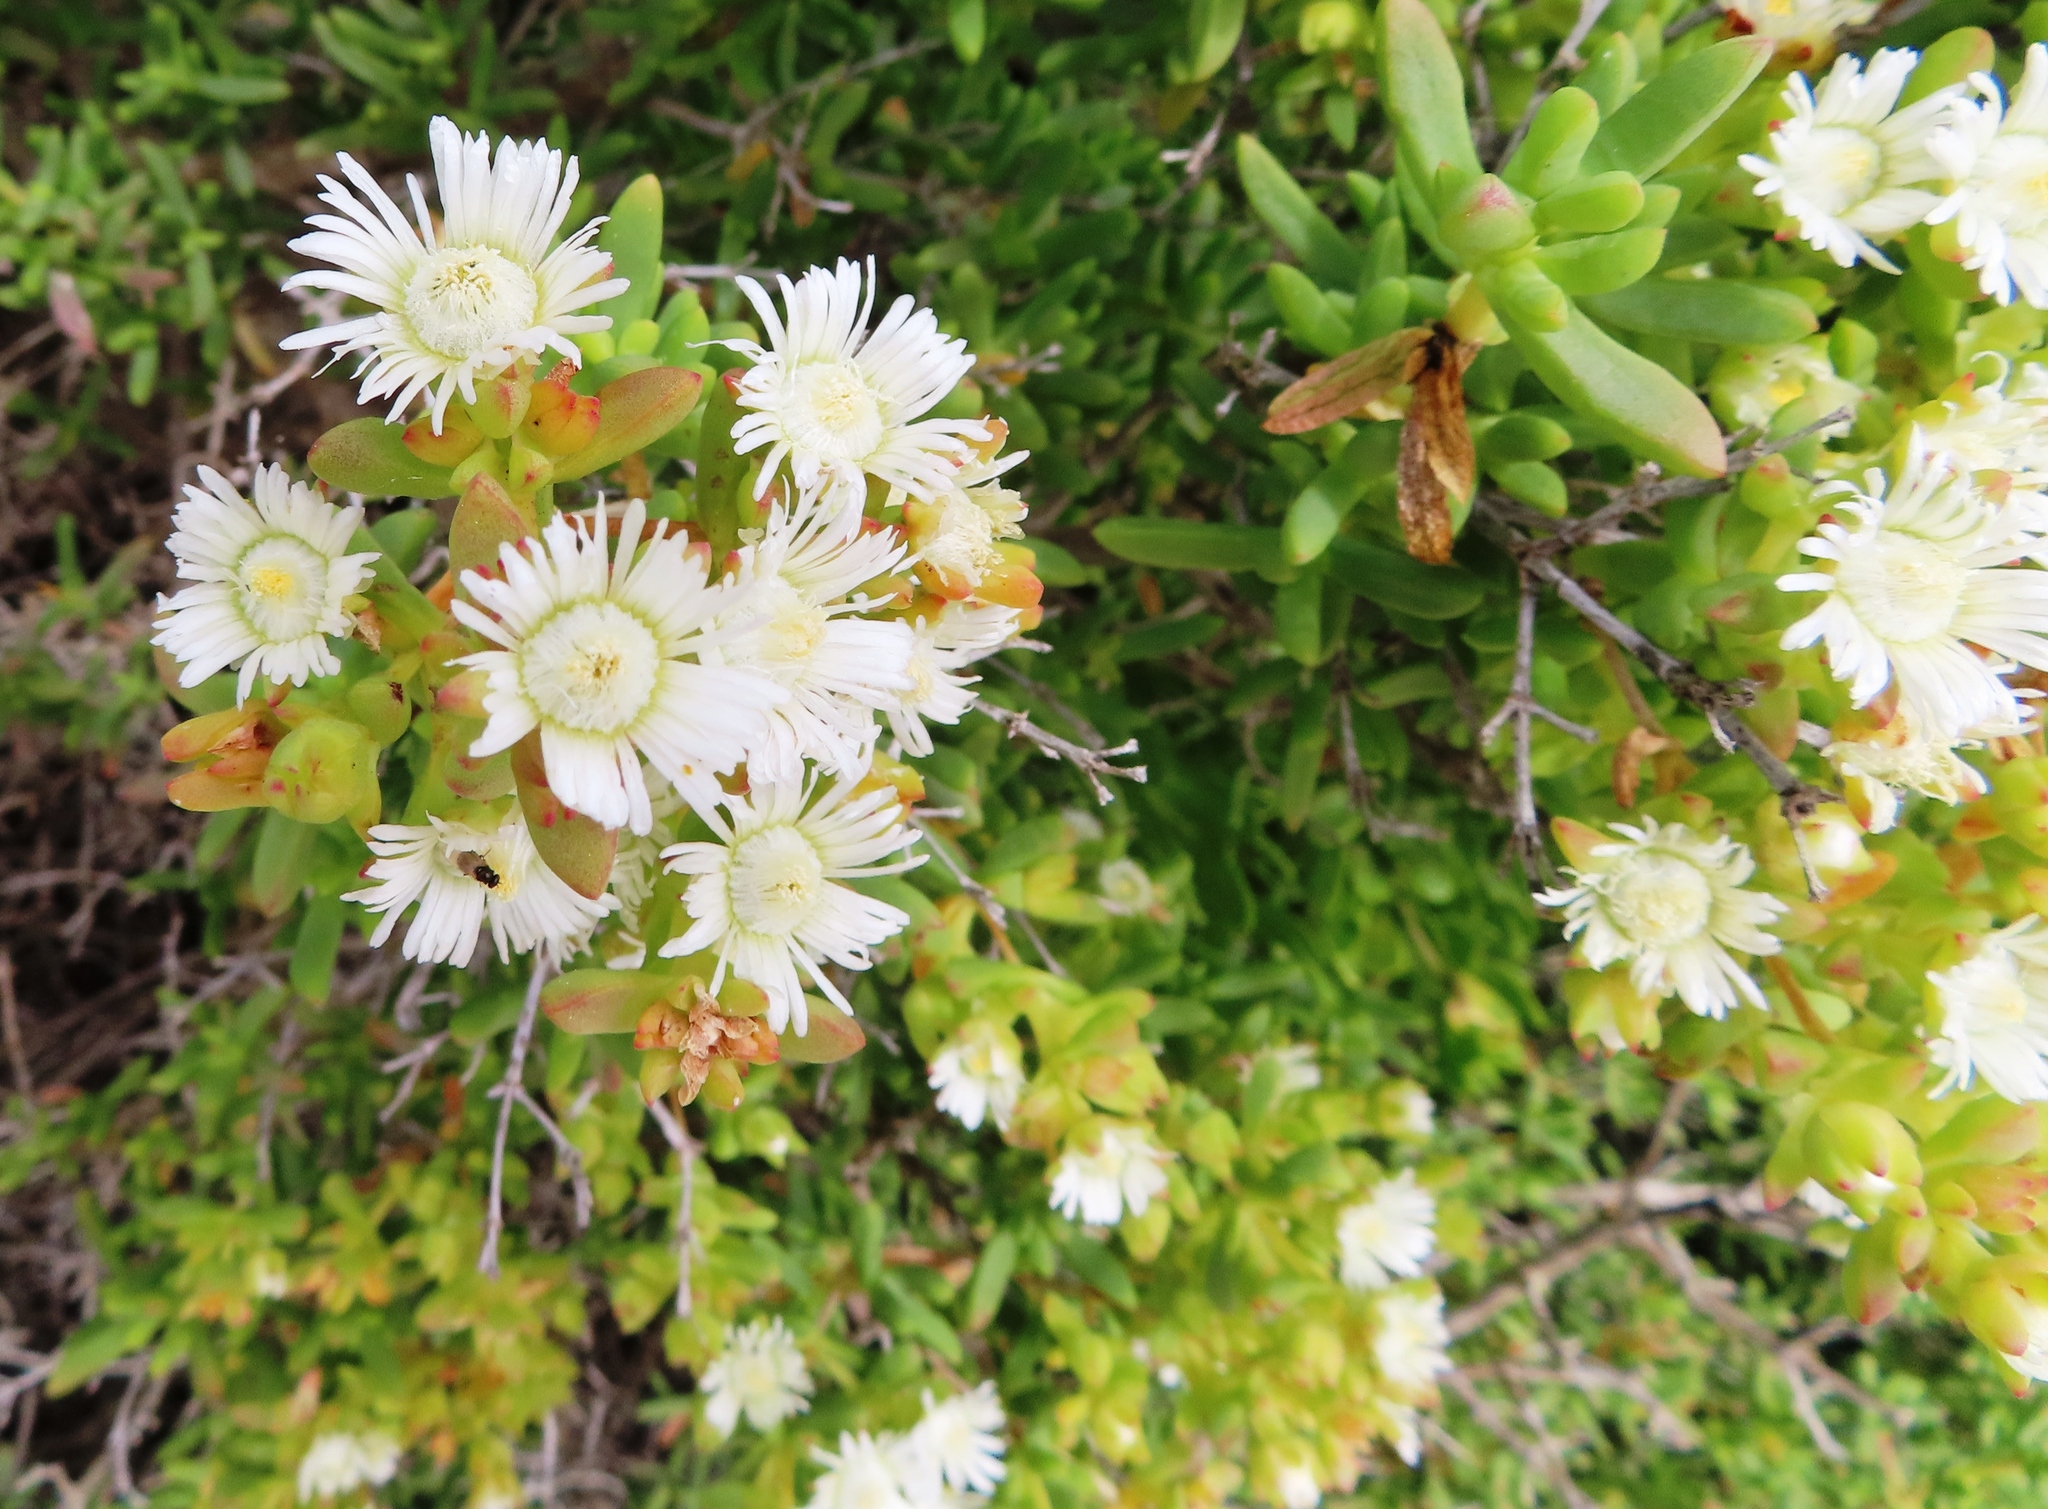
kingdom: Plantae
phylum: Tracheophyta
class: Magnoliopsida
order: Caryophyllales
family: Aizoaceae
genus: Stoeberia
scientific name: Stoeberia utilis
